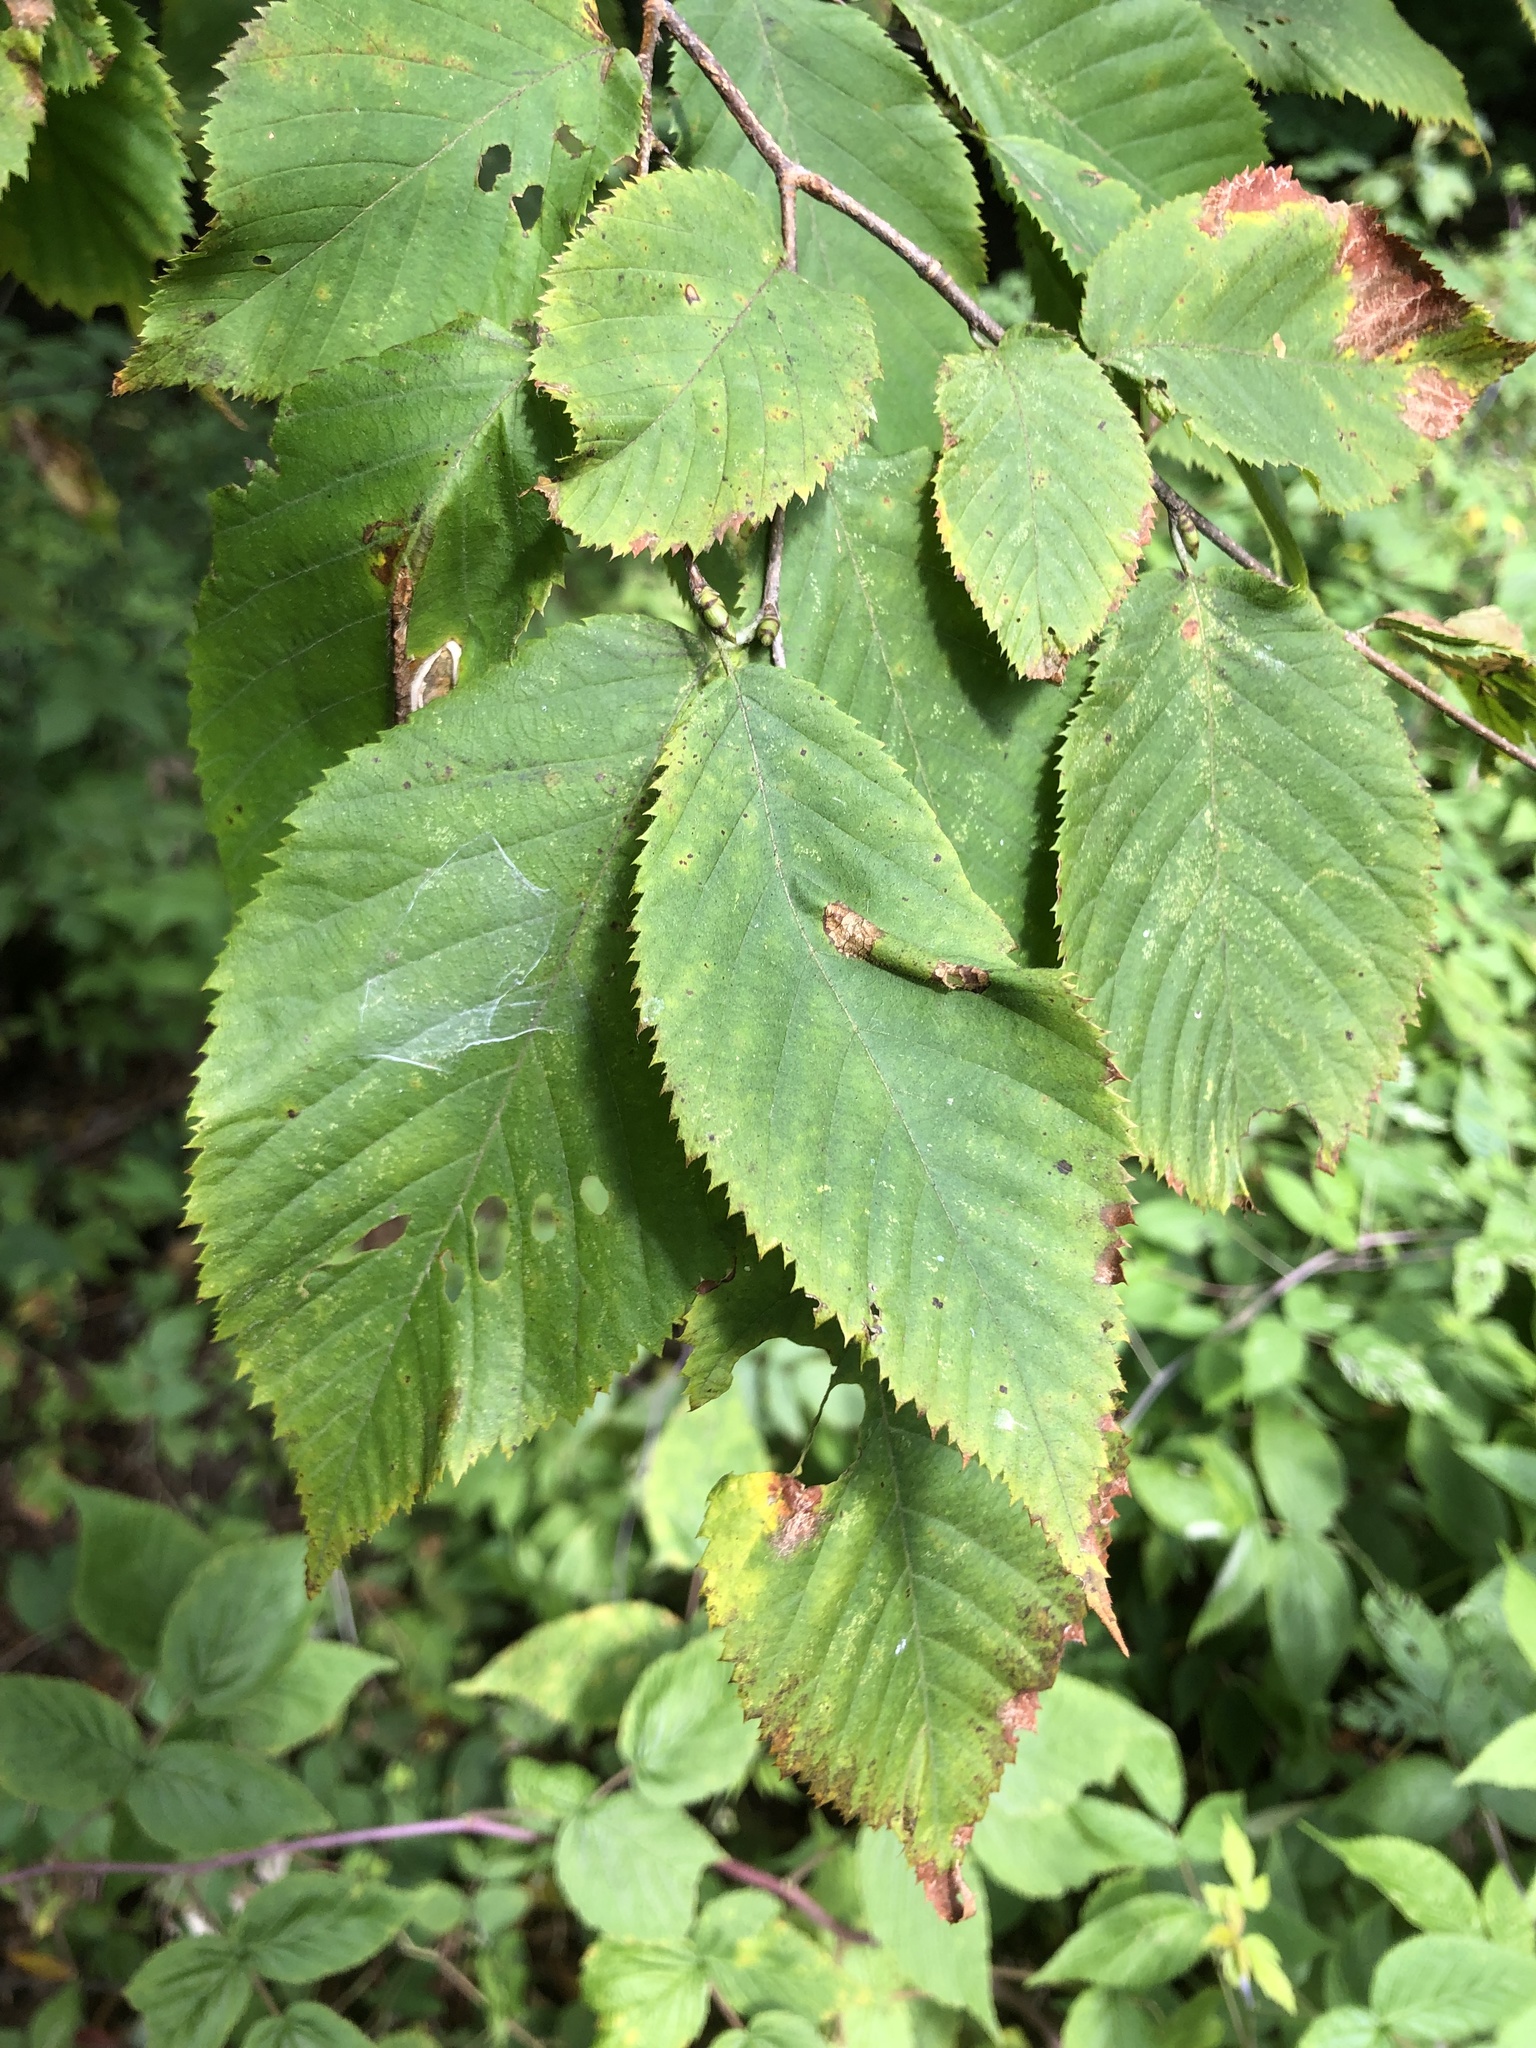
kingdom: Plantae
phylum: Tracheophyta
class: Magnoliopsida
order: Fagales
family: Betulaceae
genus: Ostrya
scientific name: Ostrya virginiana
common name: Ironwood
